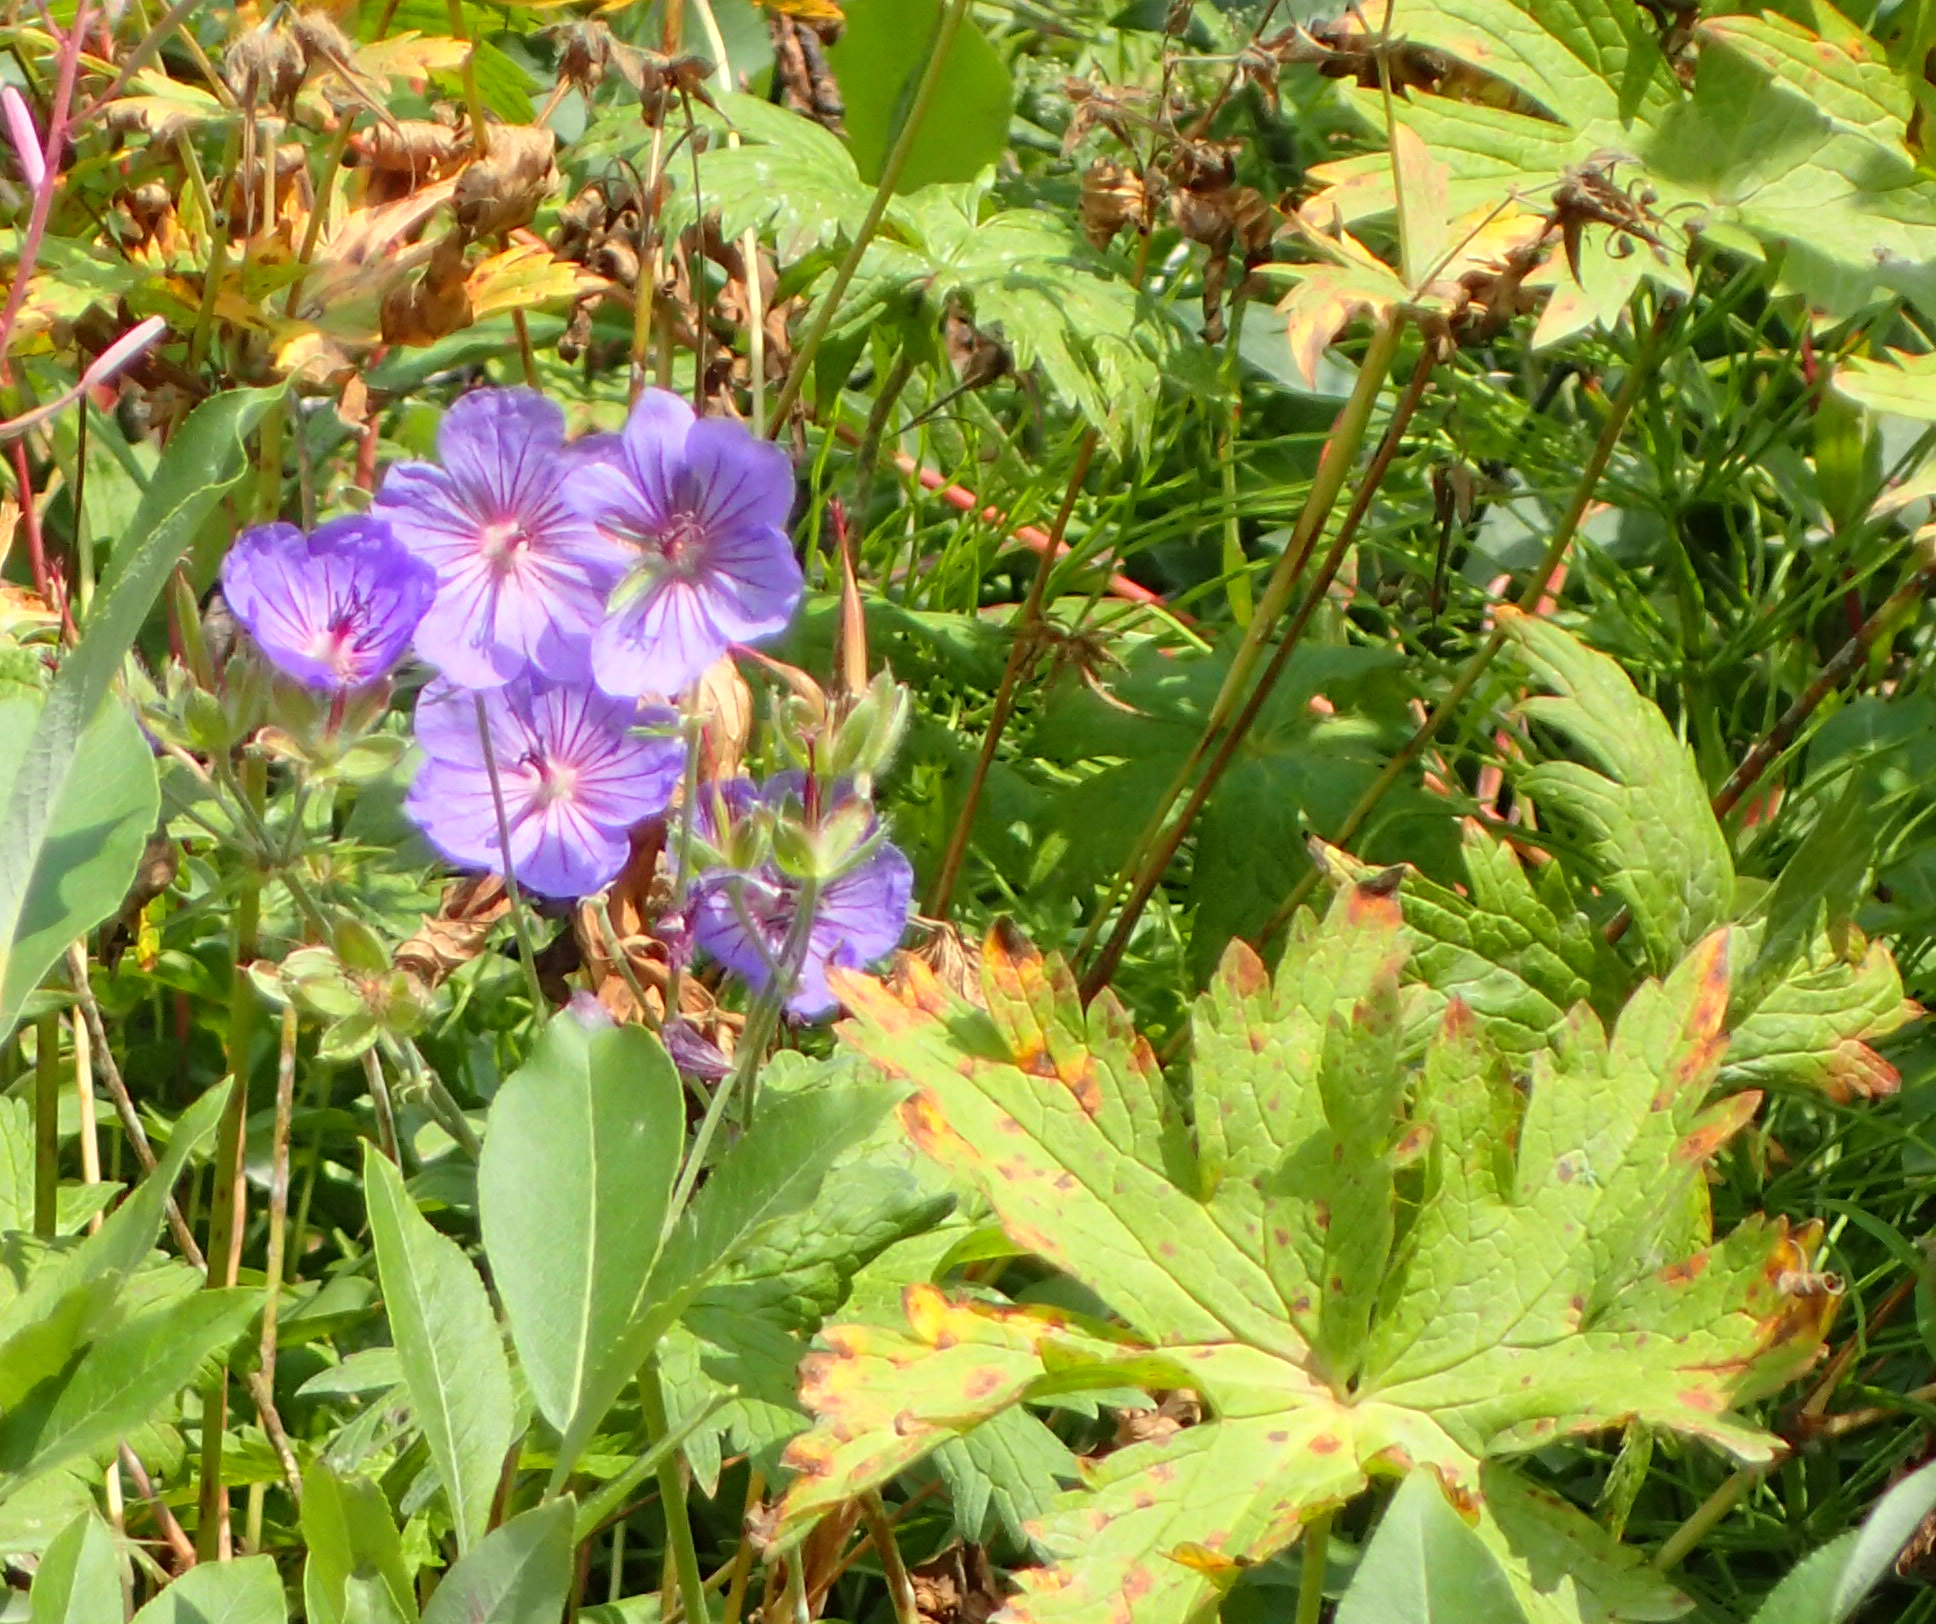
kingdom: Plantae
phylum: Tracheophyta
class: Magnoliopsida
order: Geraniales
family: Geraniaceae
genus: Geranium
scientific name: Geranium erianthum
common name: Northern crane's-bill
